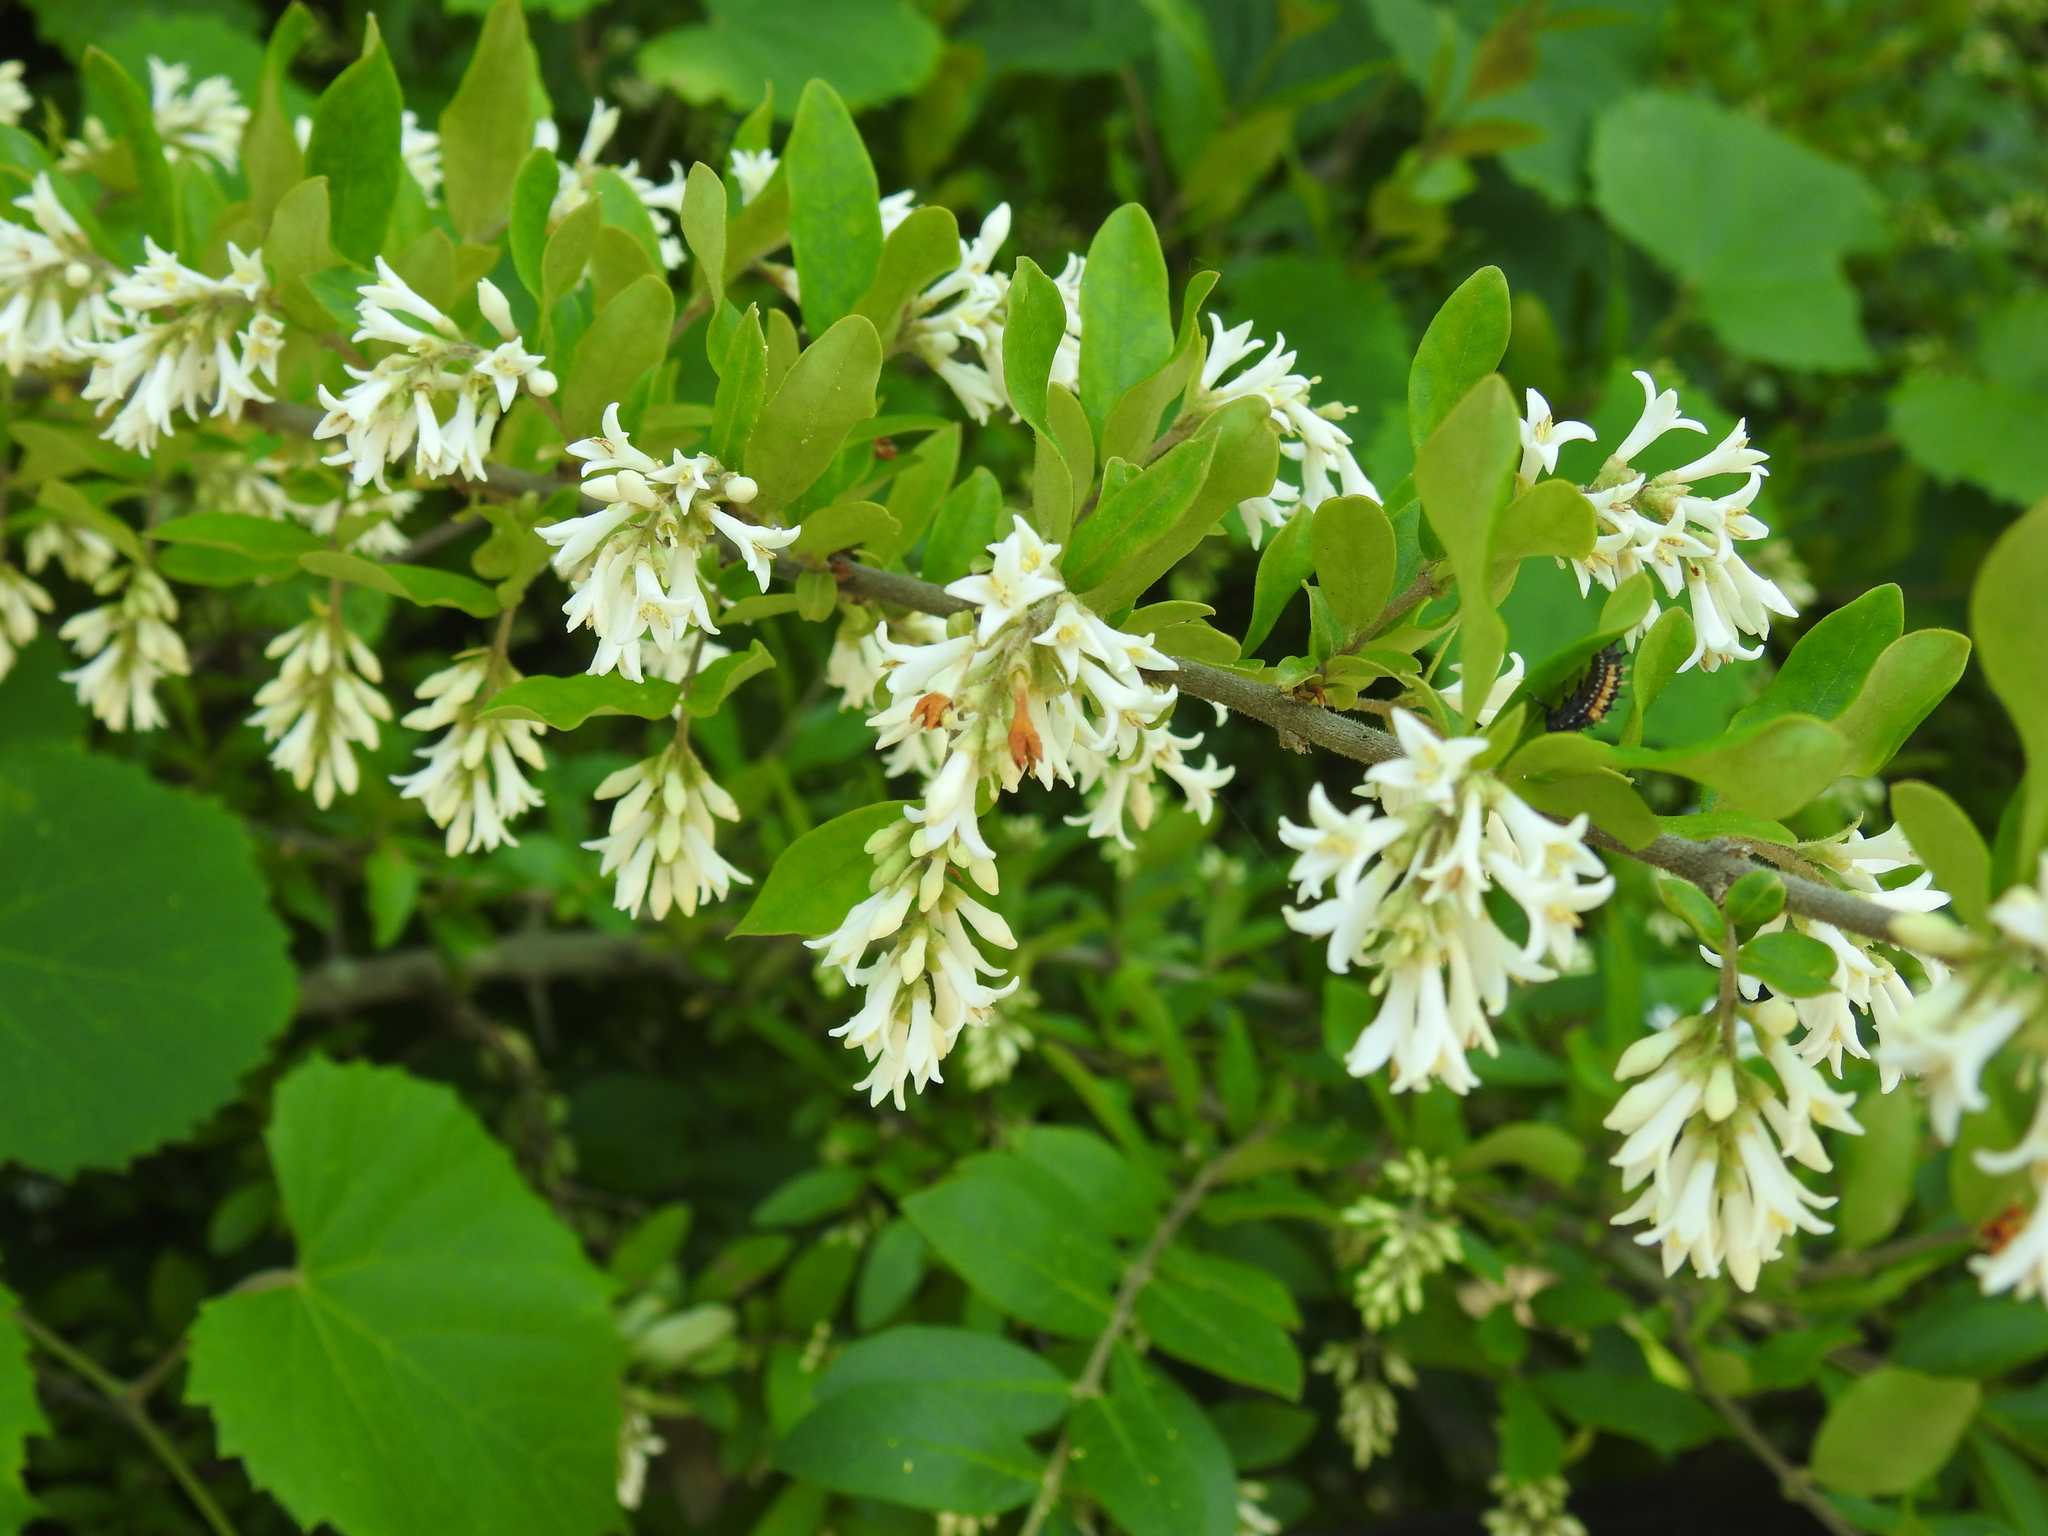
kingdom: Plantae
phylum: Tracheophyta
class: Magnoliopsida
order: Lamiales
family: Oleaceae
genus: Ligustrum
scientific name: Ligustrum obtusifolium
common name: Border privet
